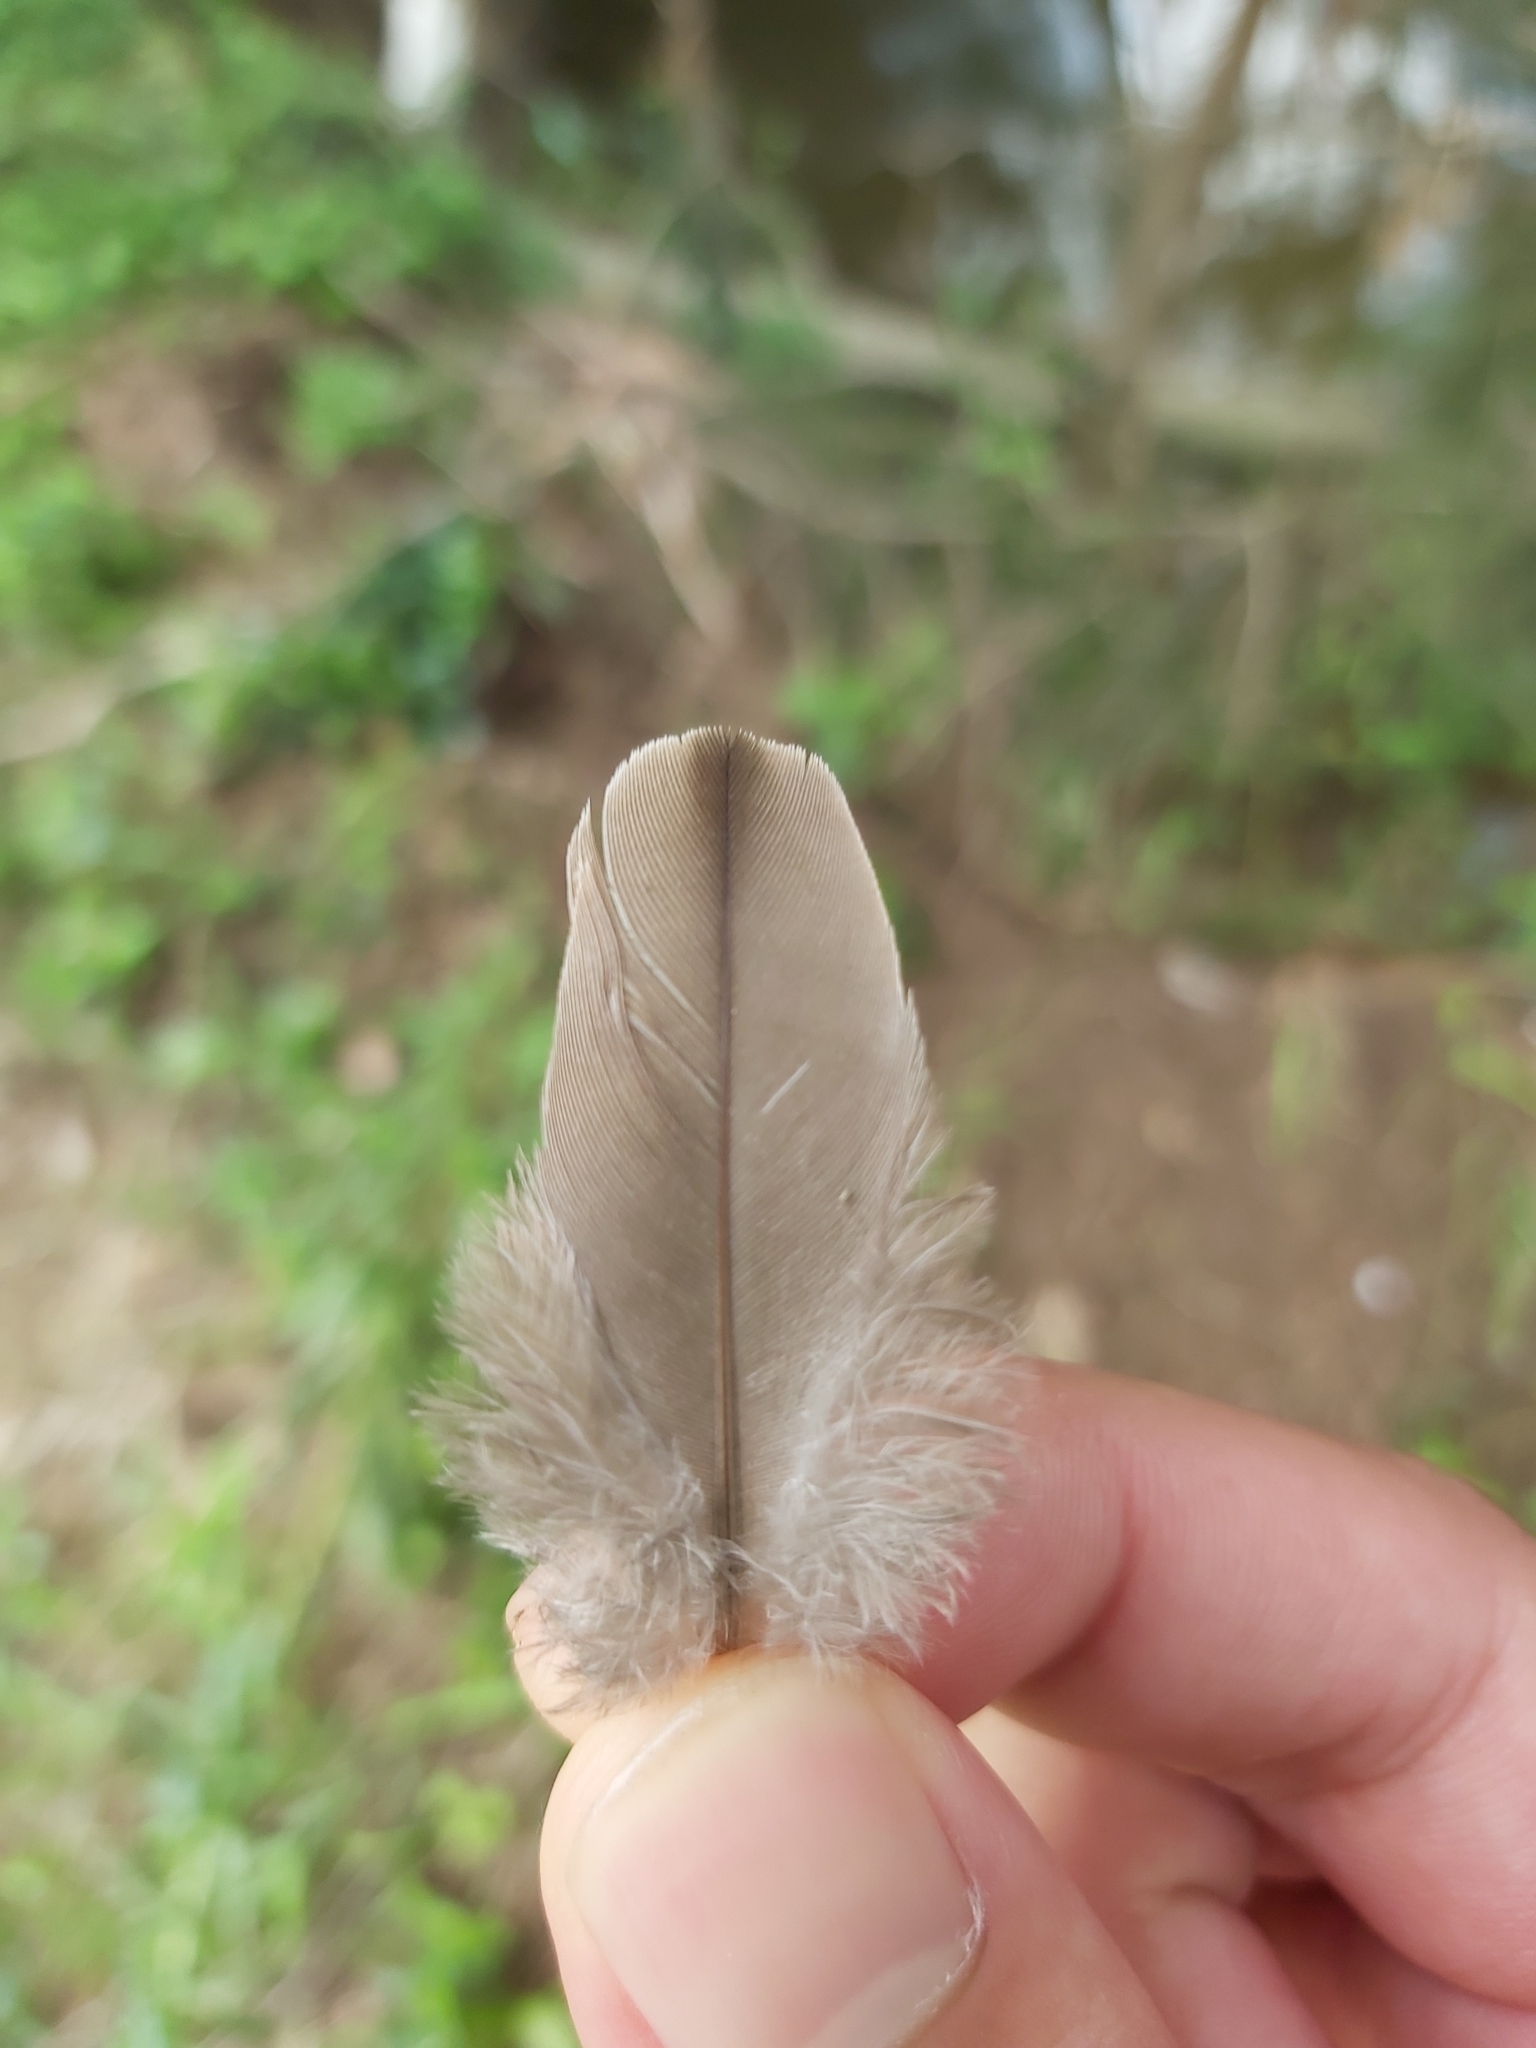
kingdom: Animalia
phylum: Chordata
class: Aves
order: Columbiformes
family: Columbidae
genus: Spilopelia
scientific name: Spilopelia chinensis
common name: Spotted dove
